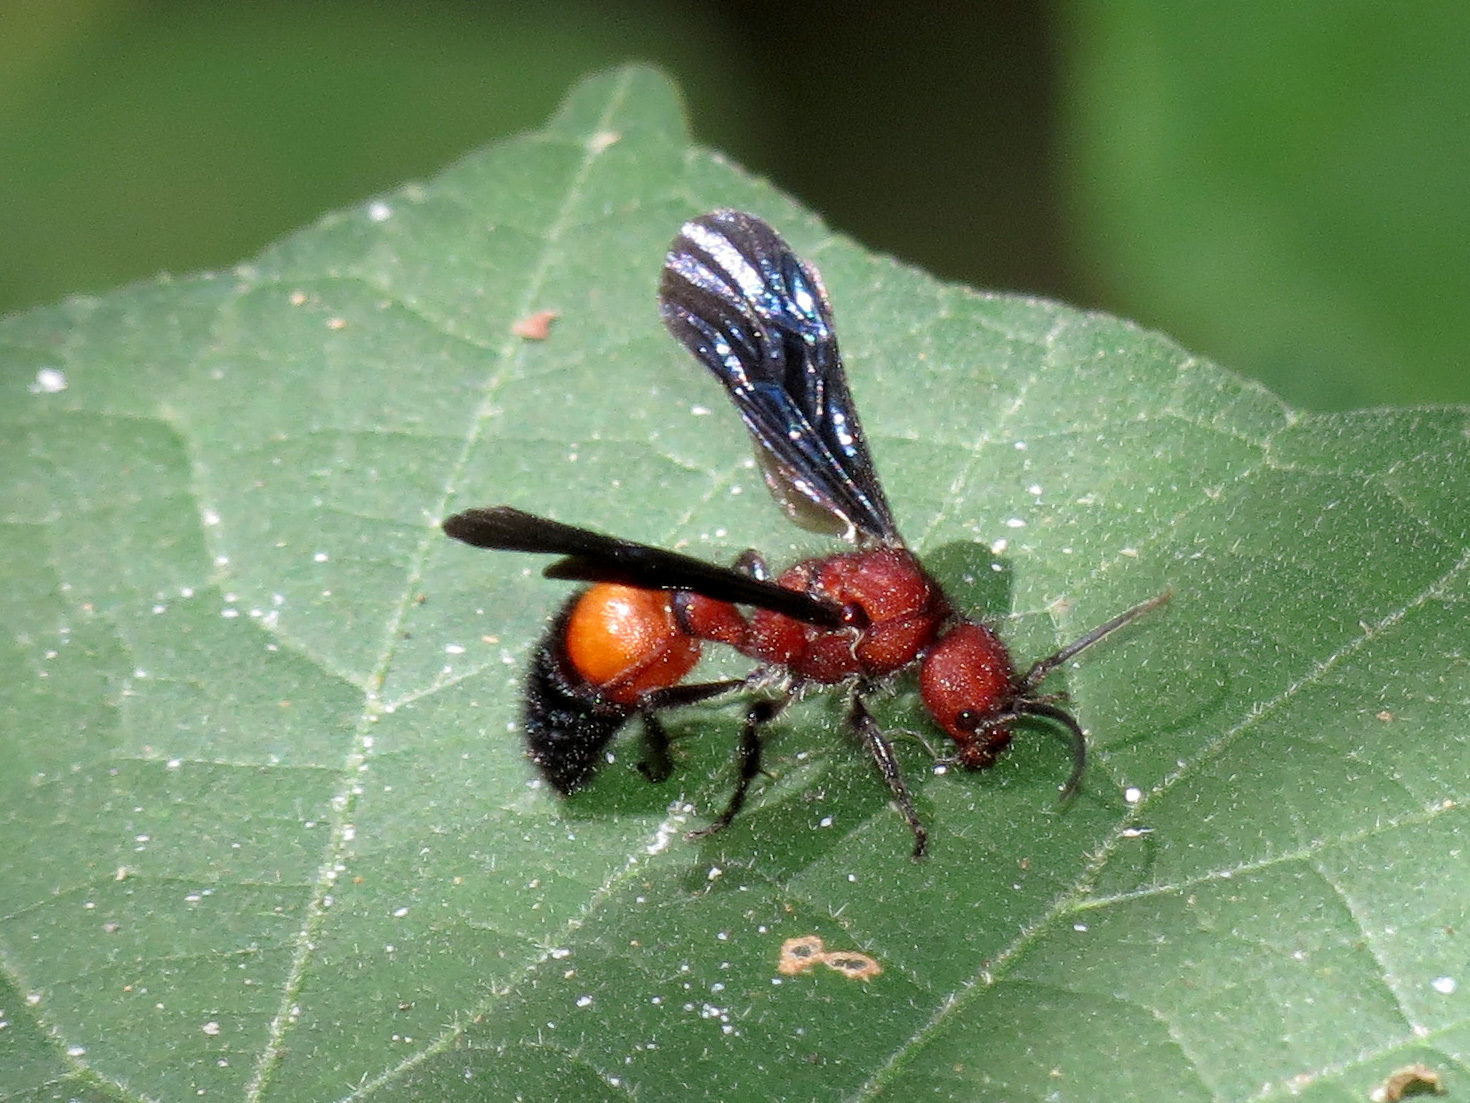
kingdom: Animalia
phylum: Arthropoda
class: Insecta
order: Hymenoptera
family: Mutillidae
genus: Sphaeropthalma
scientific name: Sphaeropthalma
